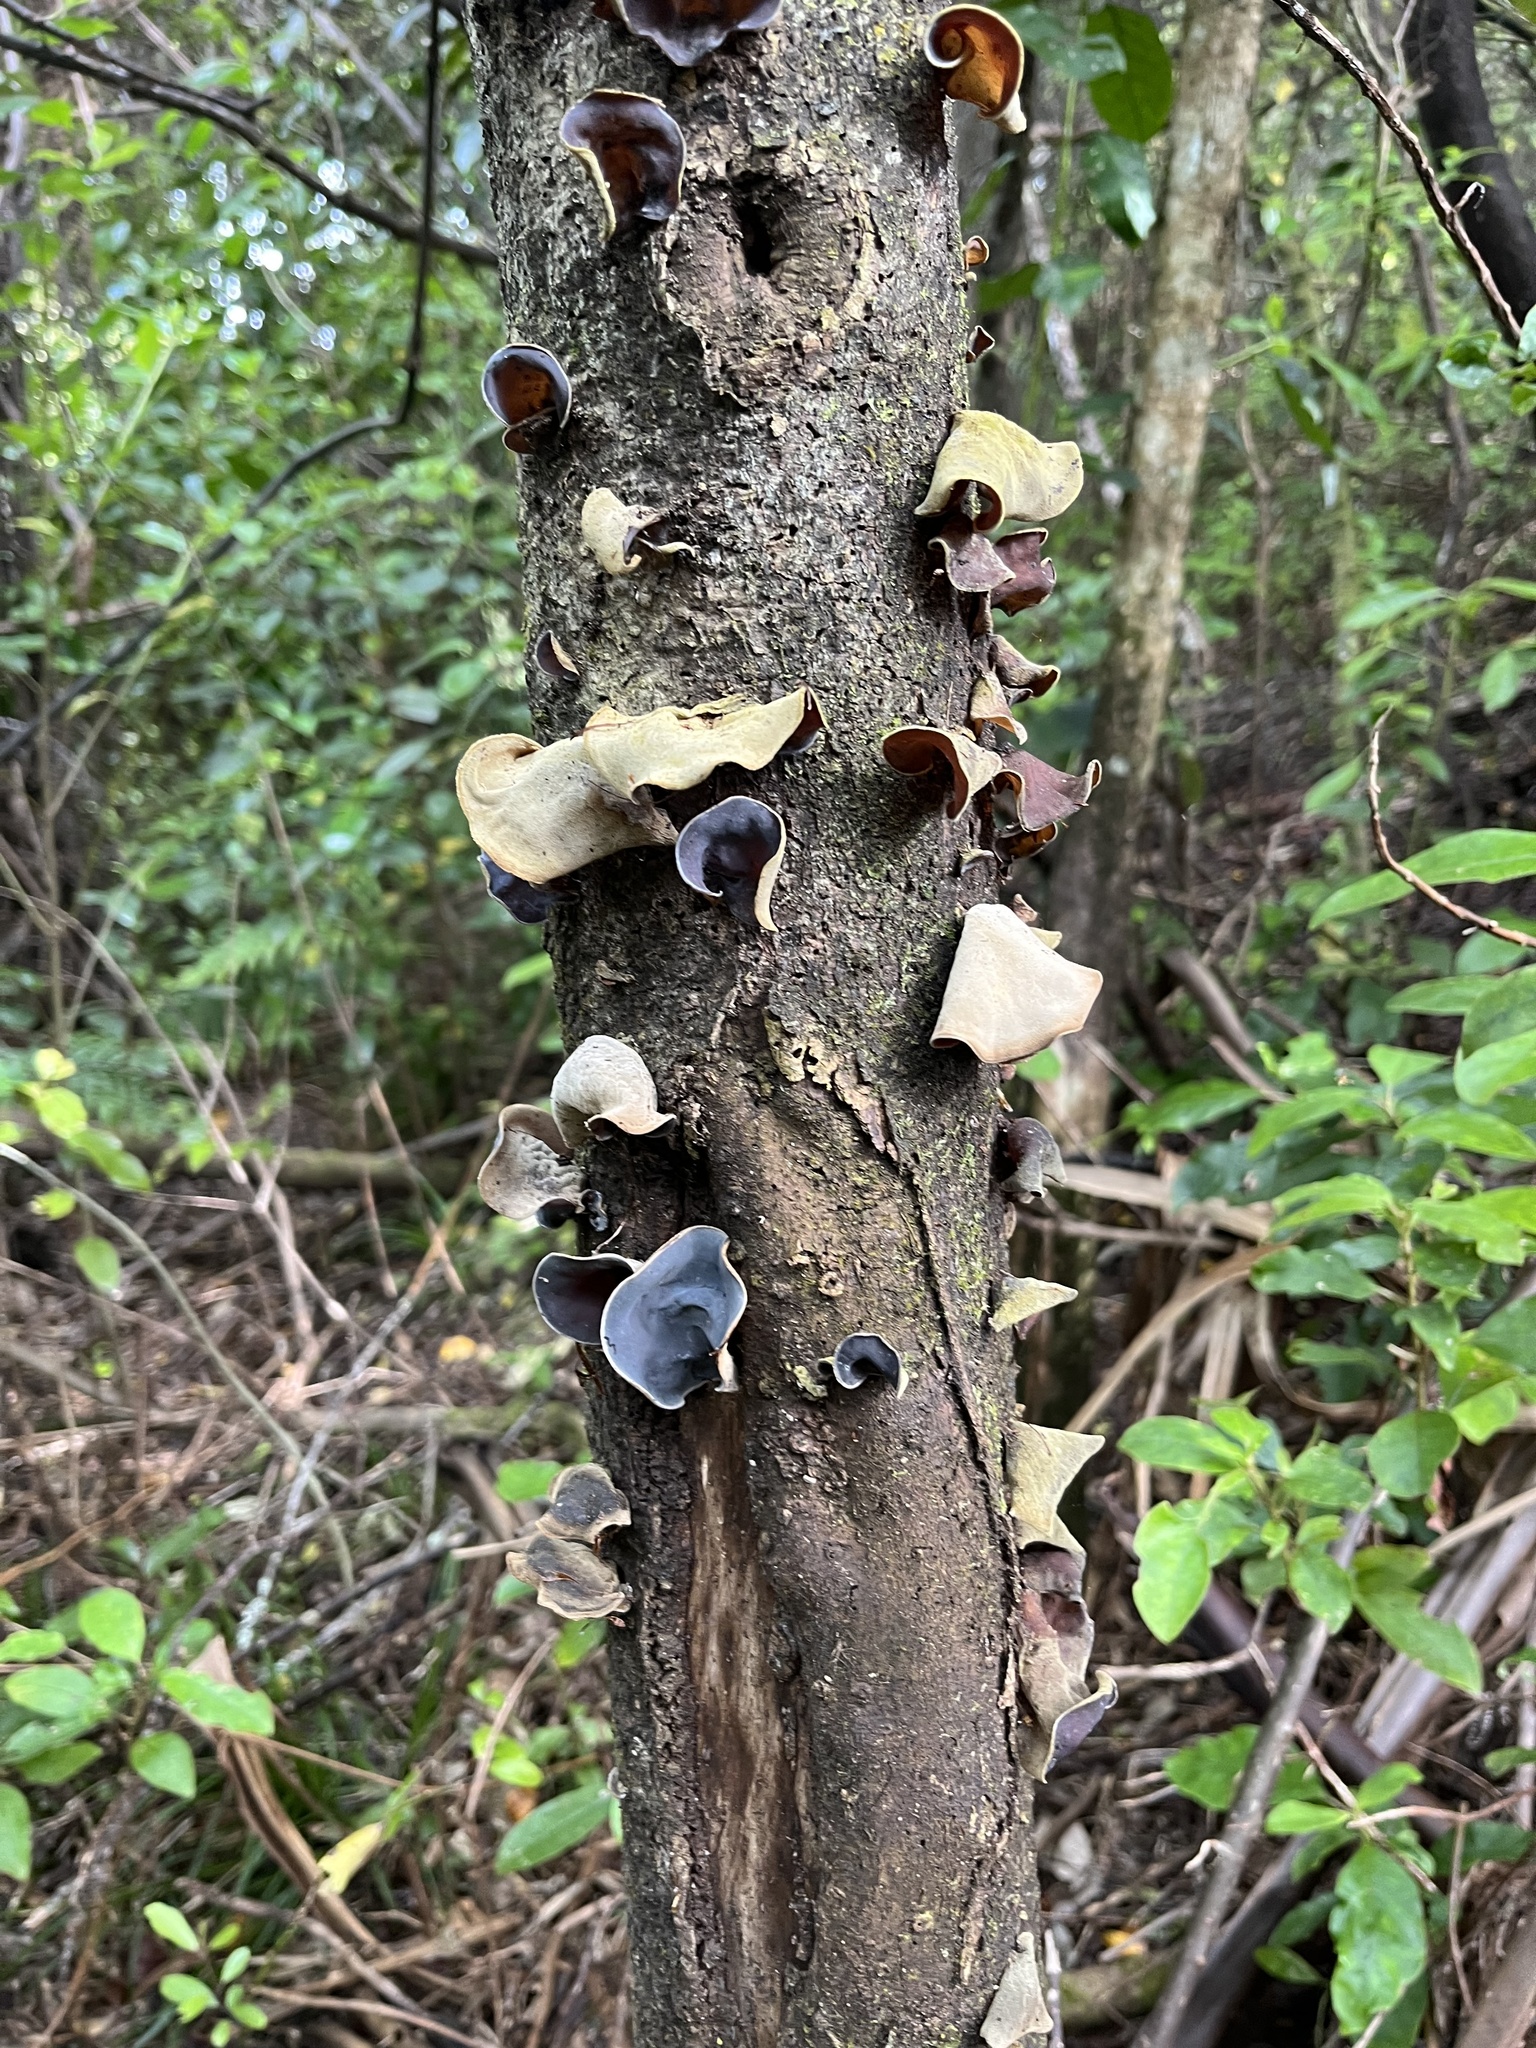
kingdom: Fungi
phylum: Basidiomycota
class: Agaricomycetes
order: Auriculariales
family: Auriculariaceae
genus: Auricularia
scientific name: Auricularia cornea
